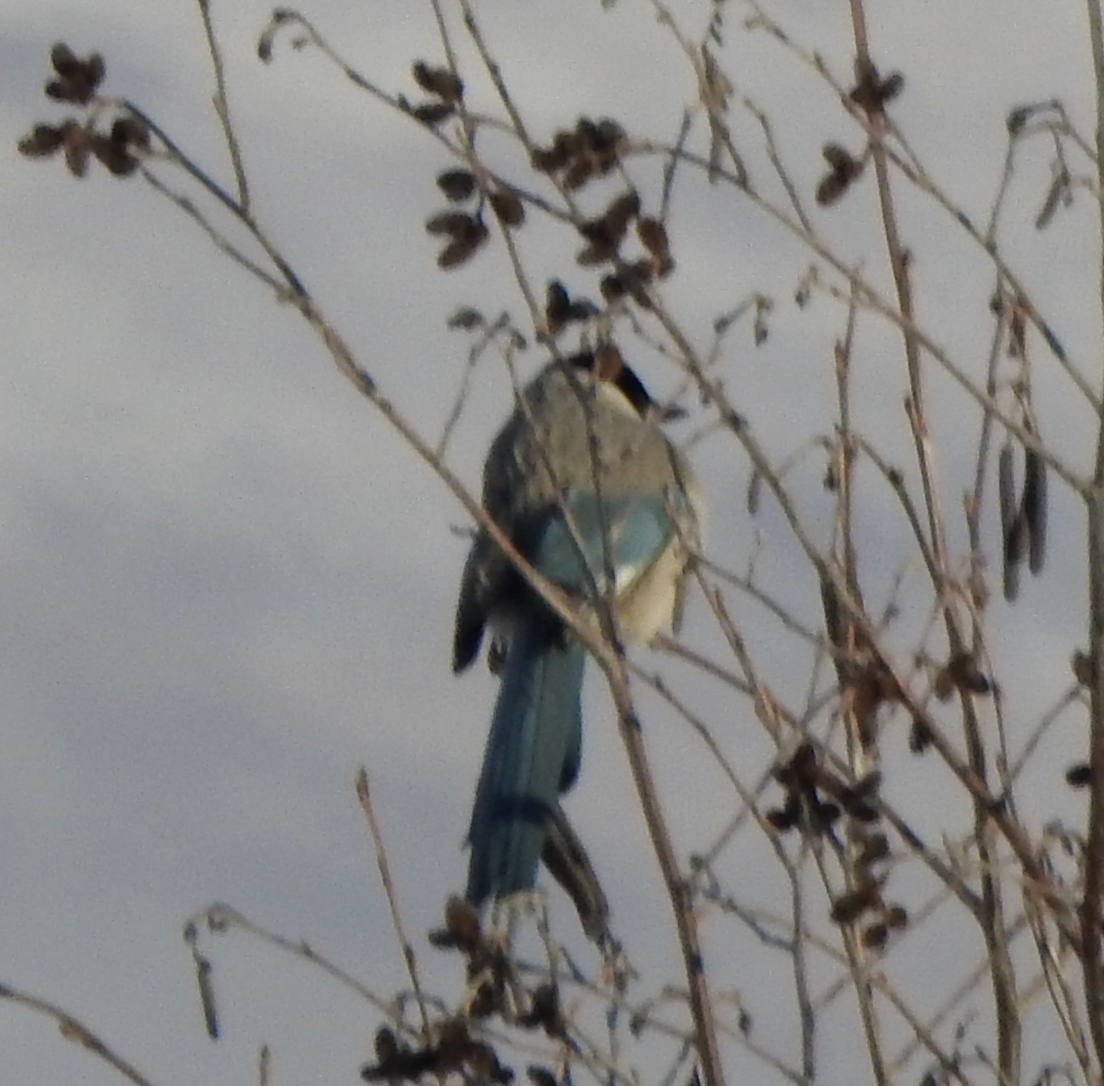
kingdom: Animalia
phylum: Chordata
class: Aves
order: Passeriformes
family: Corvidae
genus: Cyanopica
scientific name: Cyanopica cyanus
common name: Azure-winged magpie
